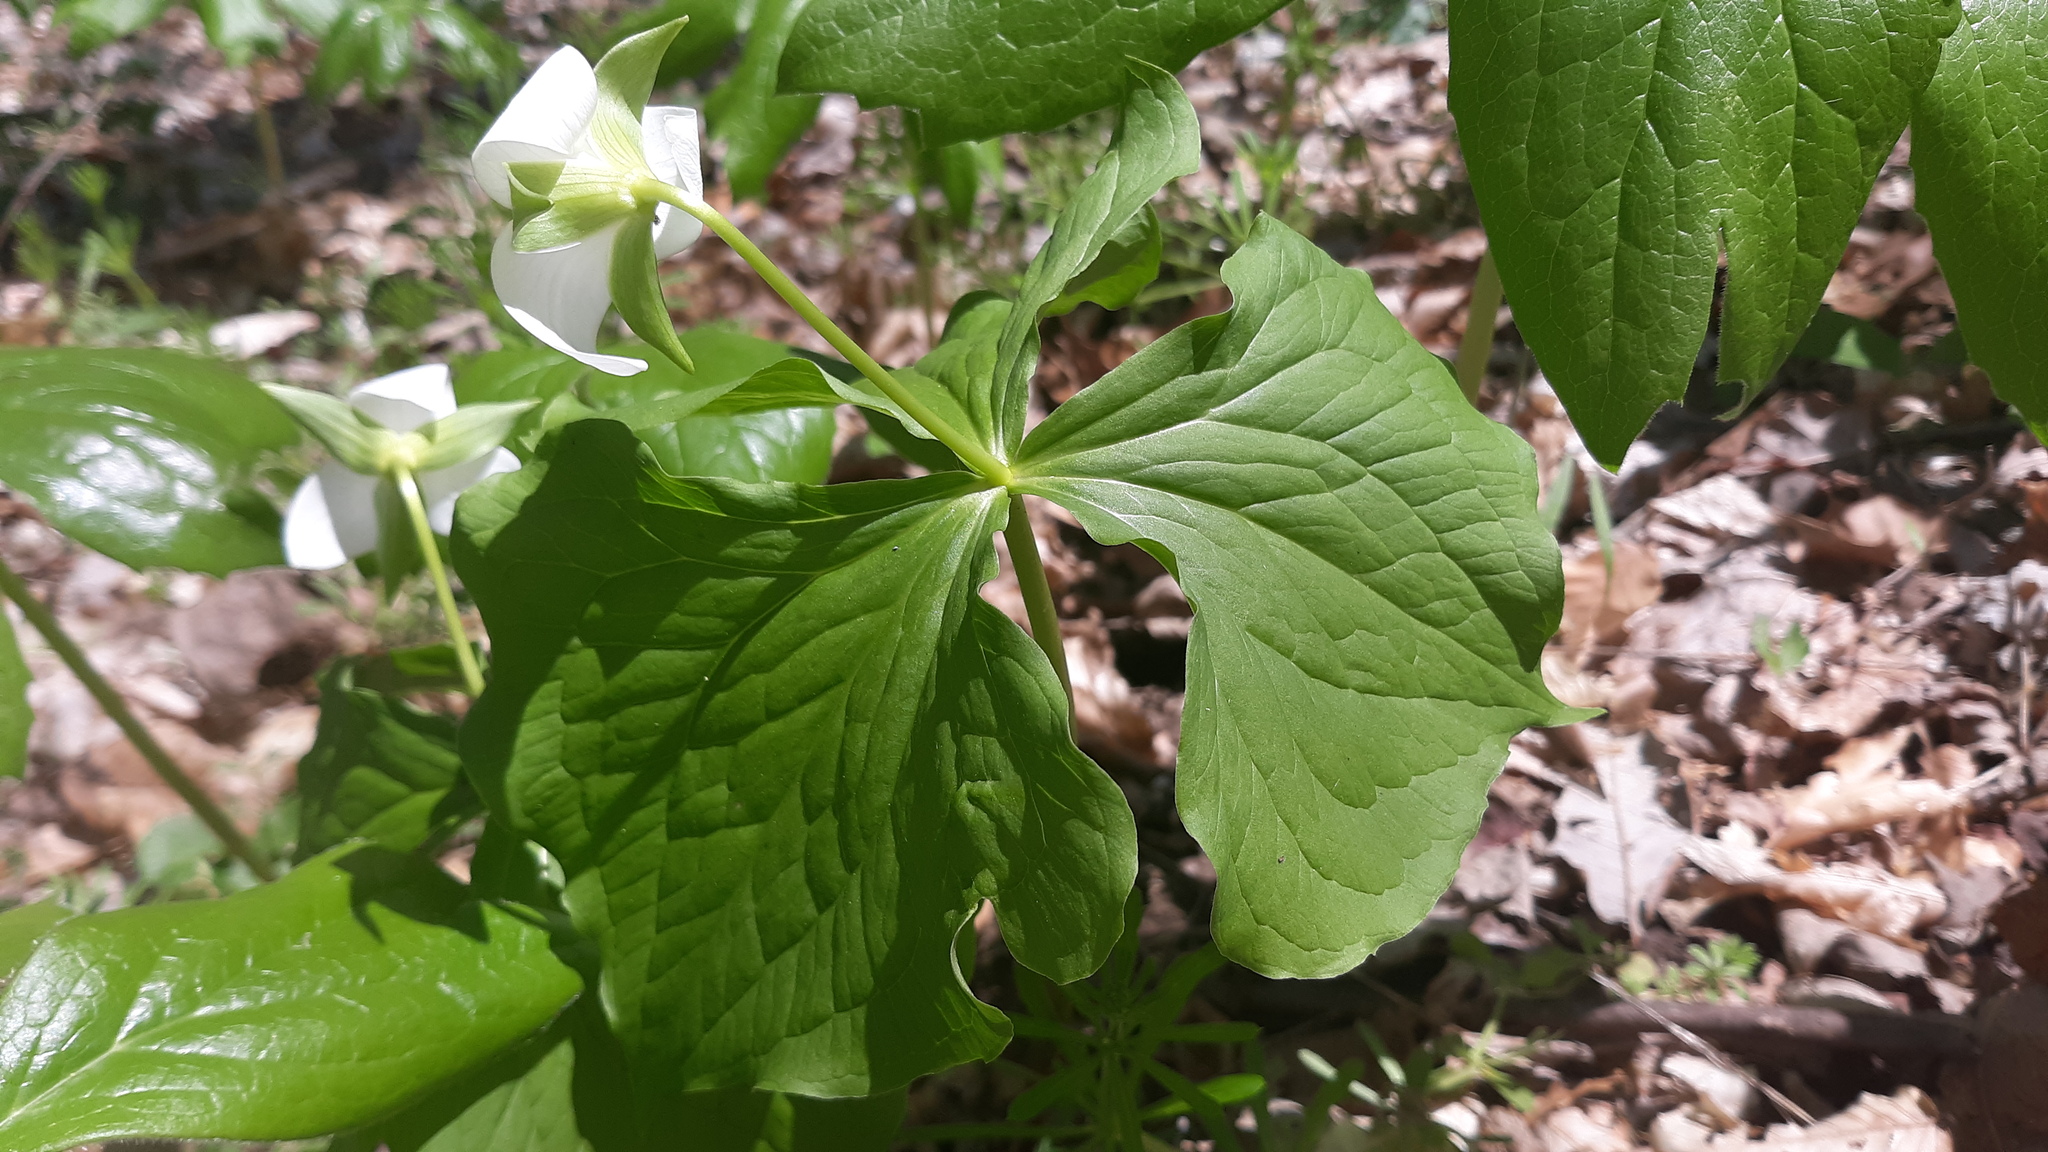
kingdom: Plantae
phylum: Tracheophyta
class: Liliopsida
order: Liliales
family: Melanthiaceae
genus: Trillium
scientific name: Trillium flexipes
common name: Drooping trillium
